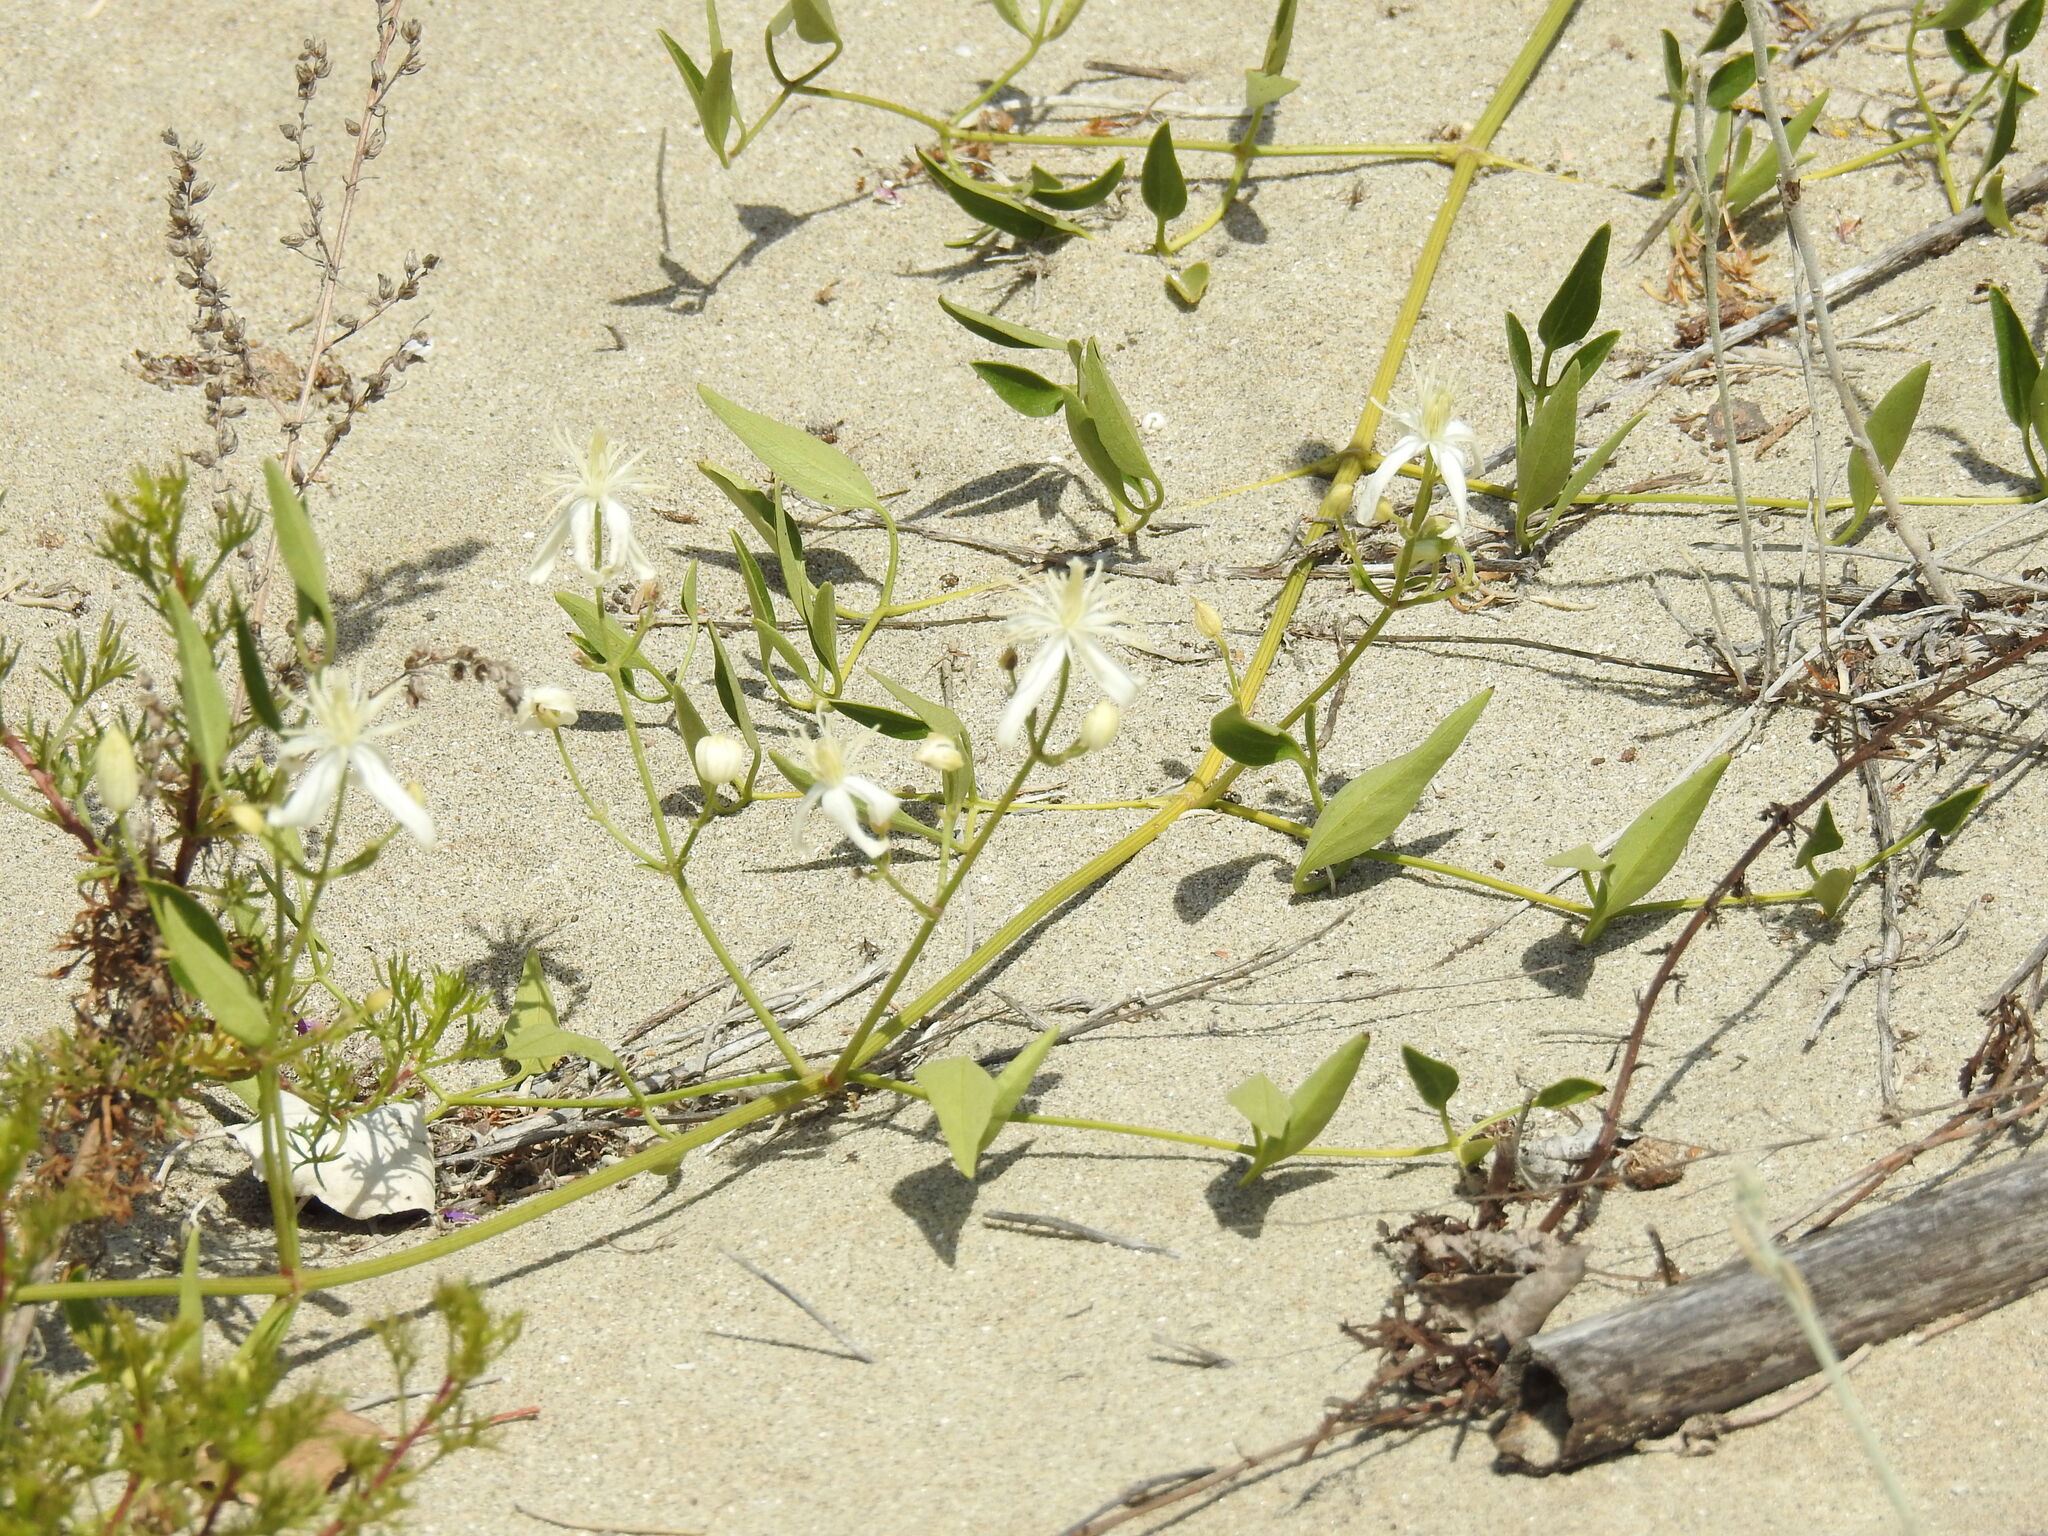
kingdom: Plantae
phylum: Tracheophyta
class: Magnoliopsida
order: Ranunculales
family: Ranunculaceae
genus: Clematis
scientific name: Clematis flammula
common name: Virgin's-bower
